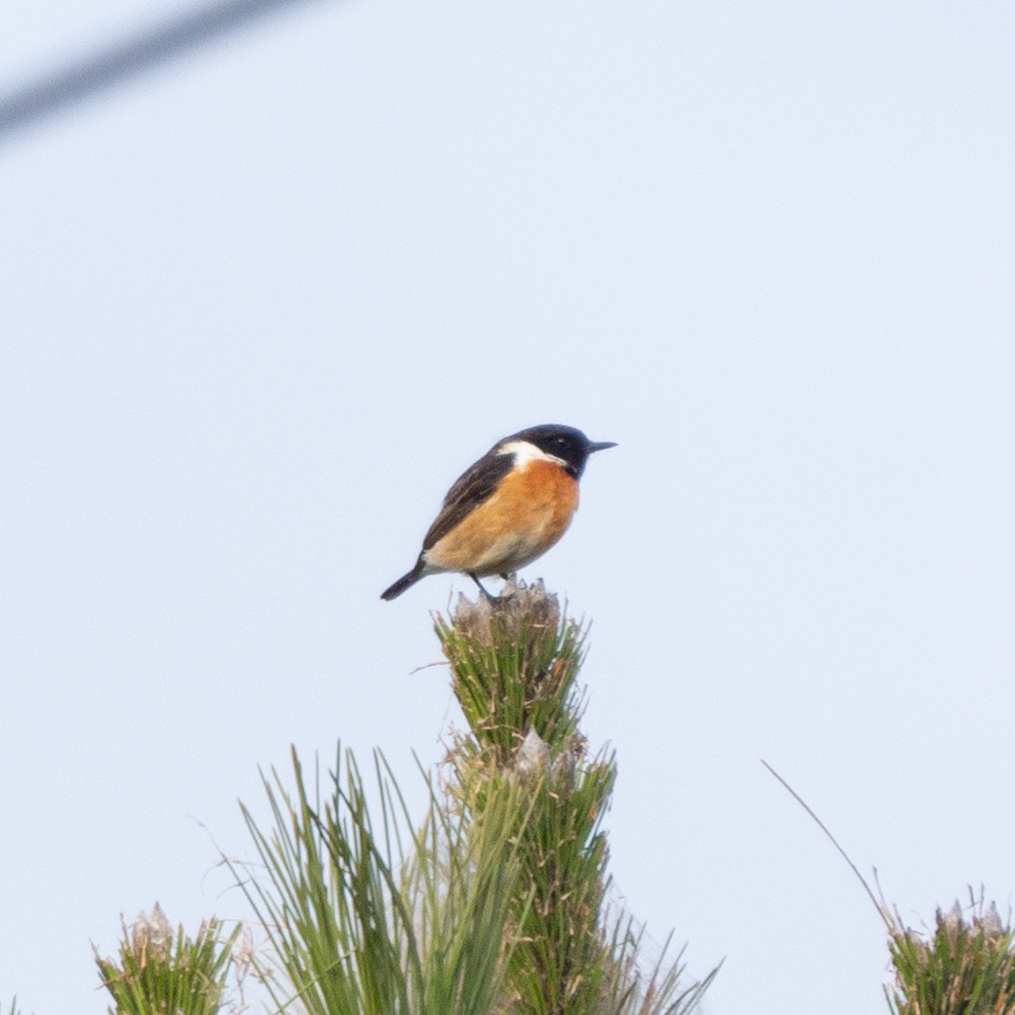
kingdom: Animalia
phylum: Chordata
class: Aves
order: Passeriformes
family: Muscicapidae
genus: Saxicola
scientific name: Saxicola rubicola
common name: European stonechat
